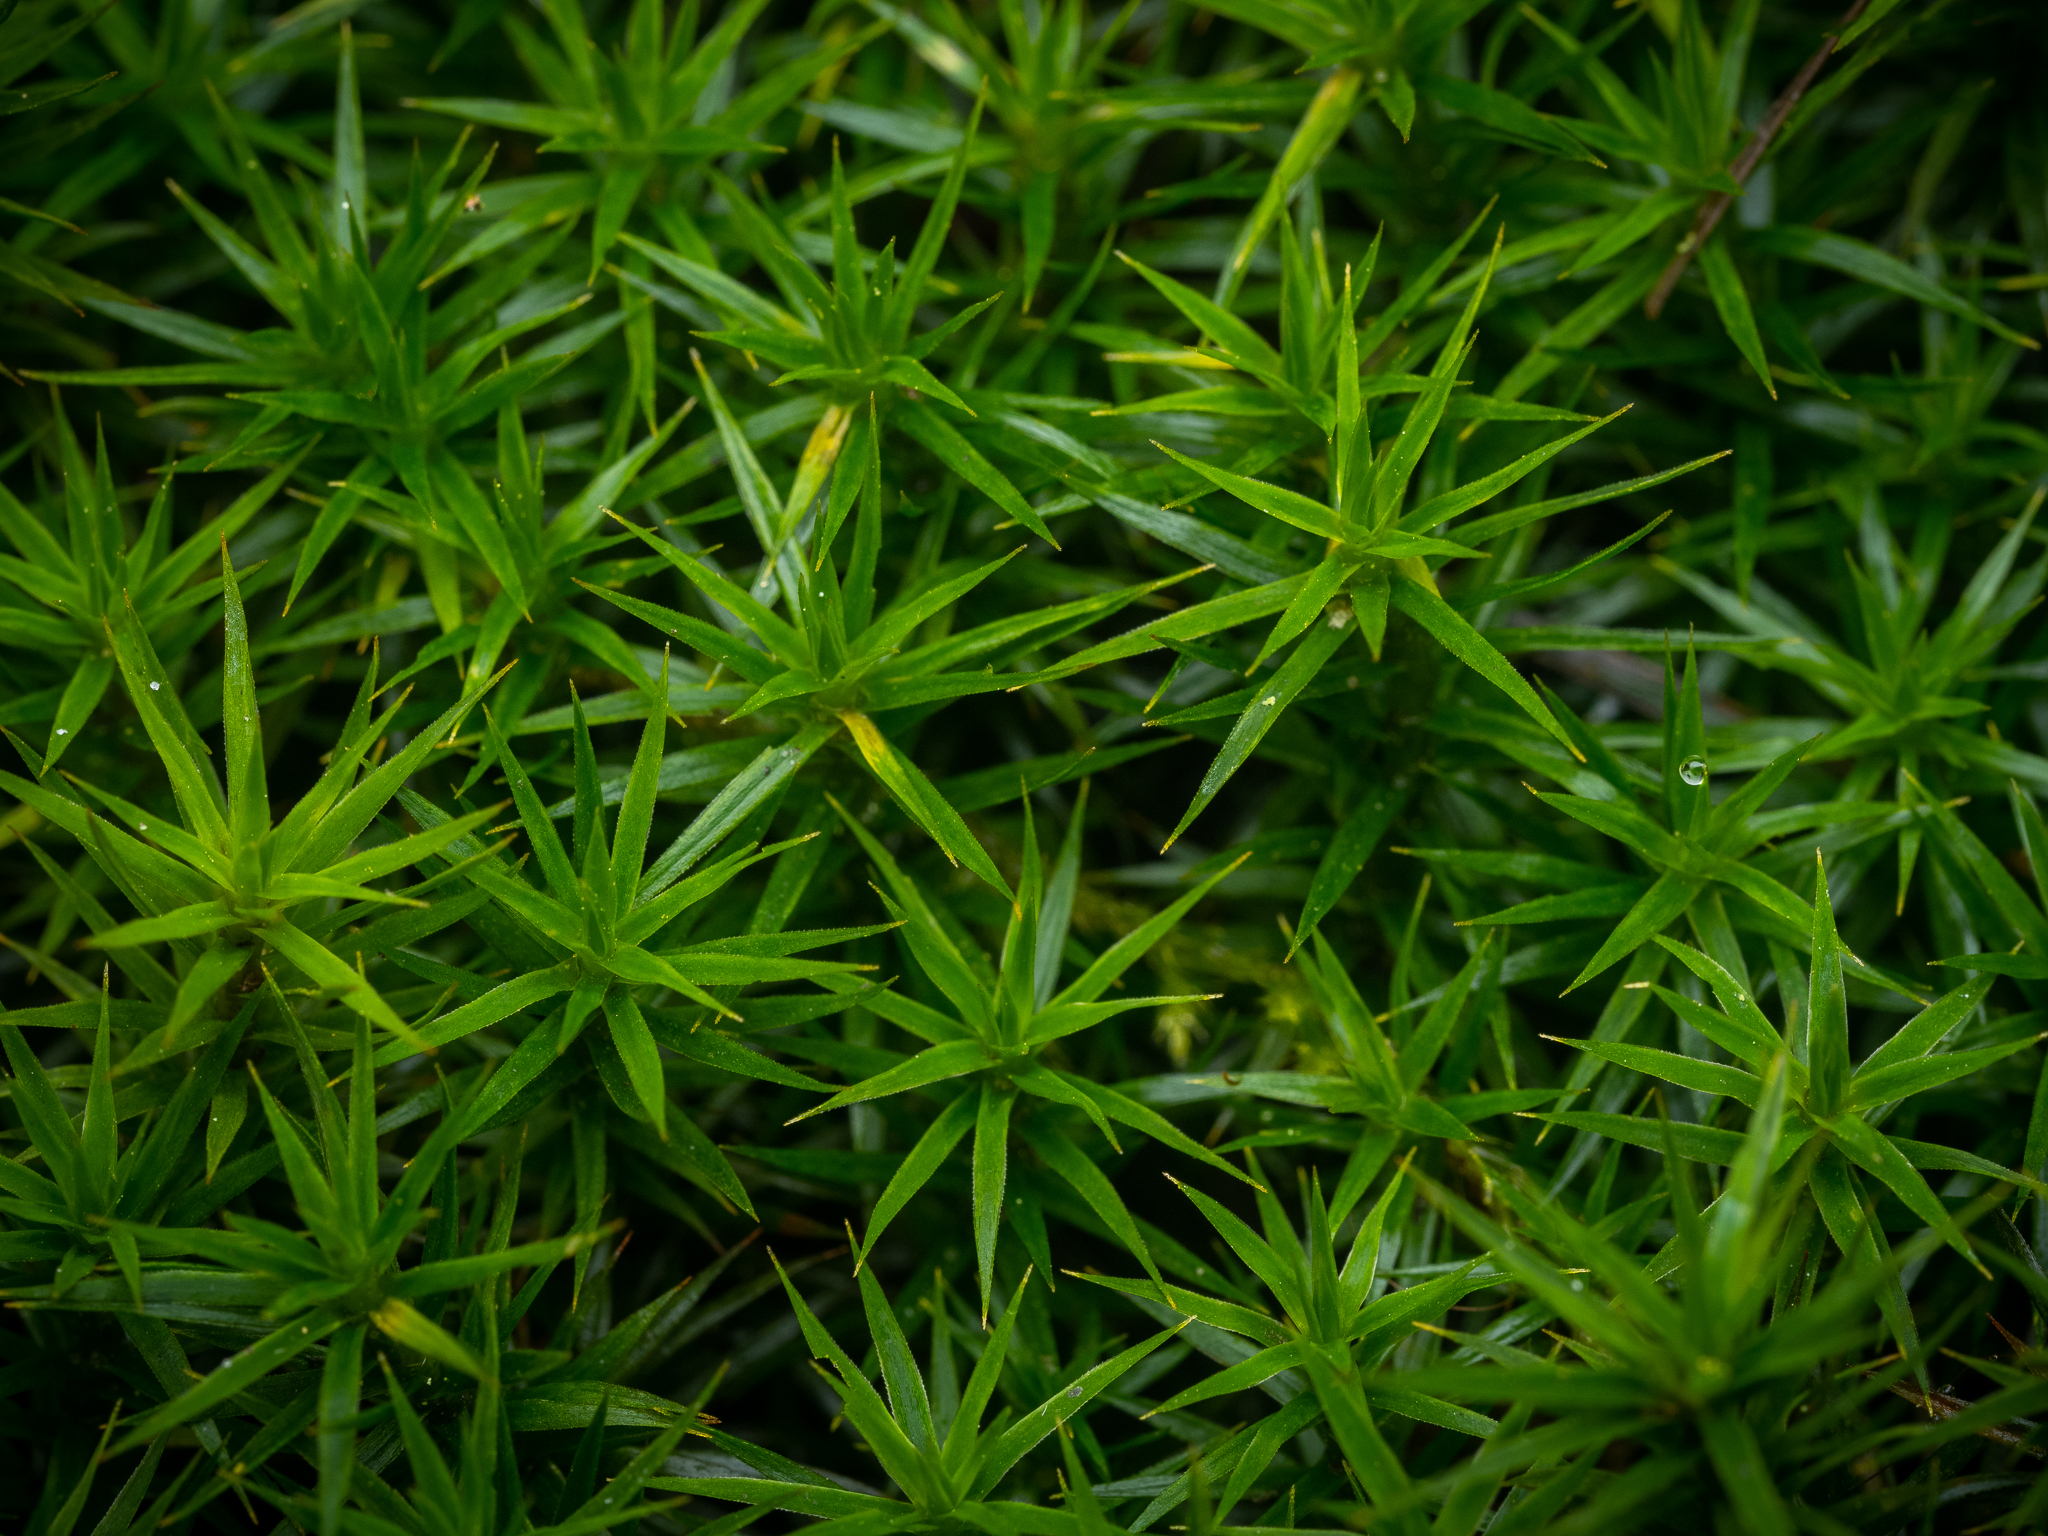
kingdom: Plantae
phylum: Bryophyta
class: Polytrichopsida
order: Polytrichales
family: Polytrichaceae
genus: Polytrichum
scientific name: Polytrichum formosum
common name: Bank haircap moss
